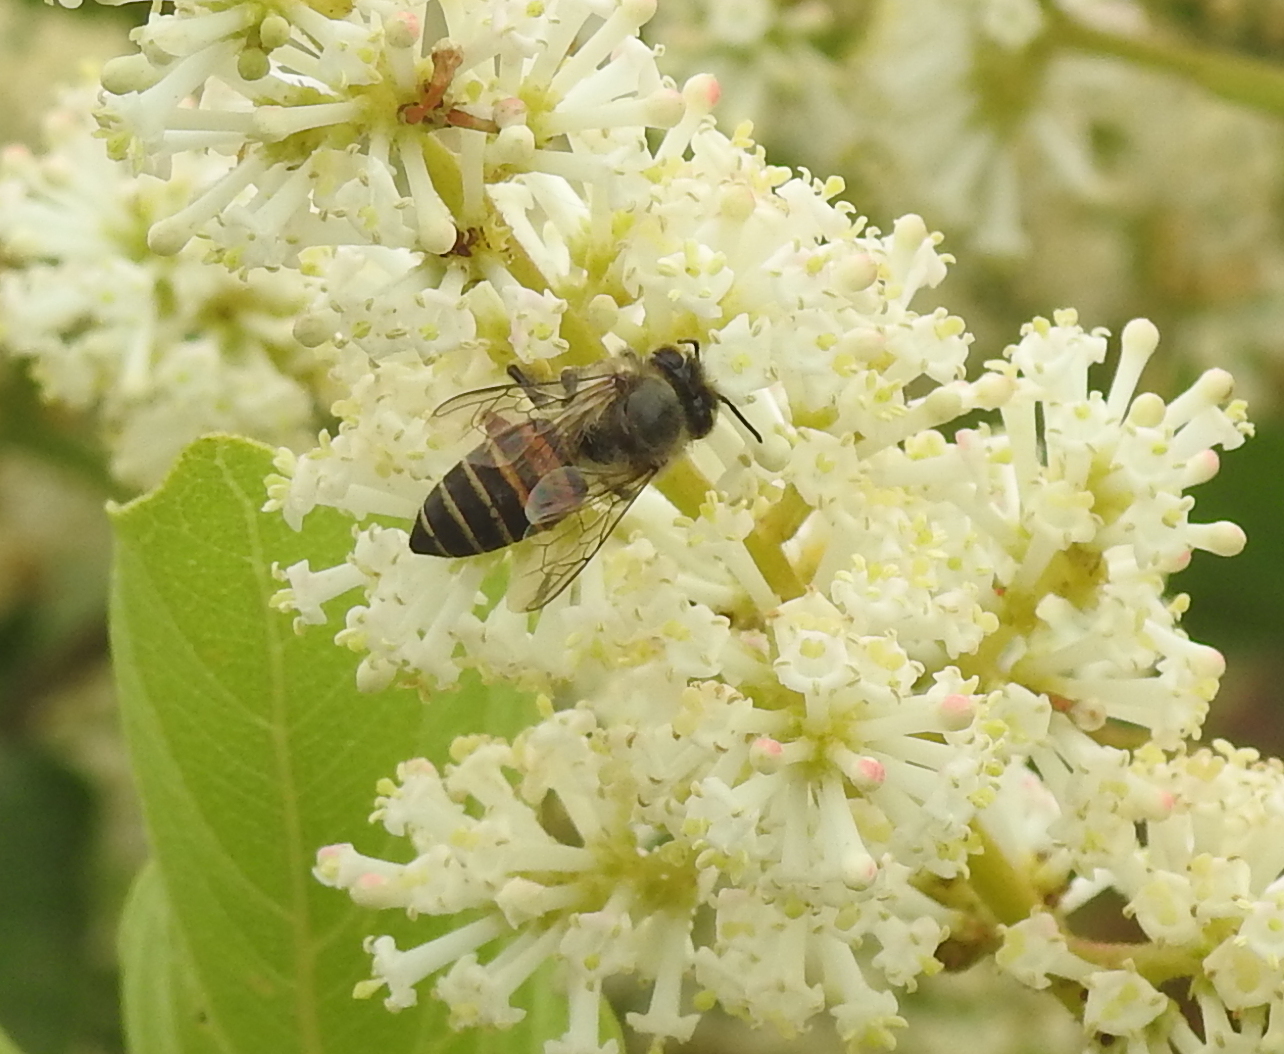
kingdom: Animalia
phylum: Arthropoda
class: Insecta
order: Hymenoptera
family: Apidae
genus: Apis
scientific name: Apis cerana
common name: Honey bee
